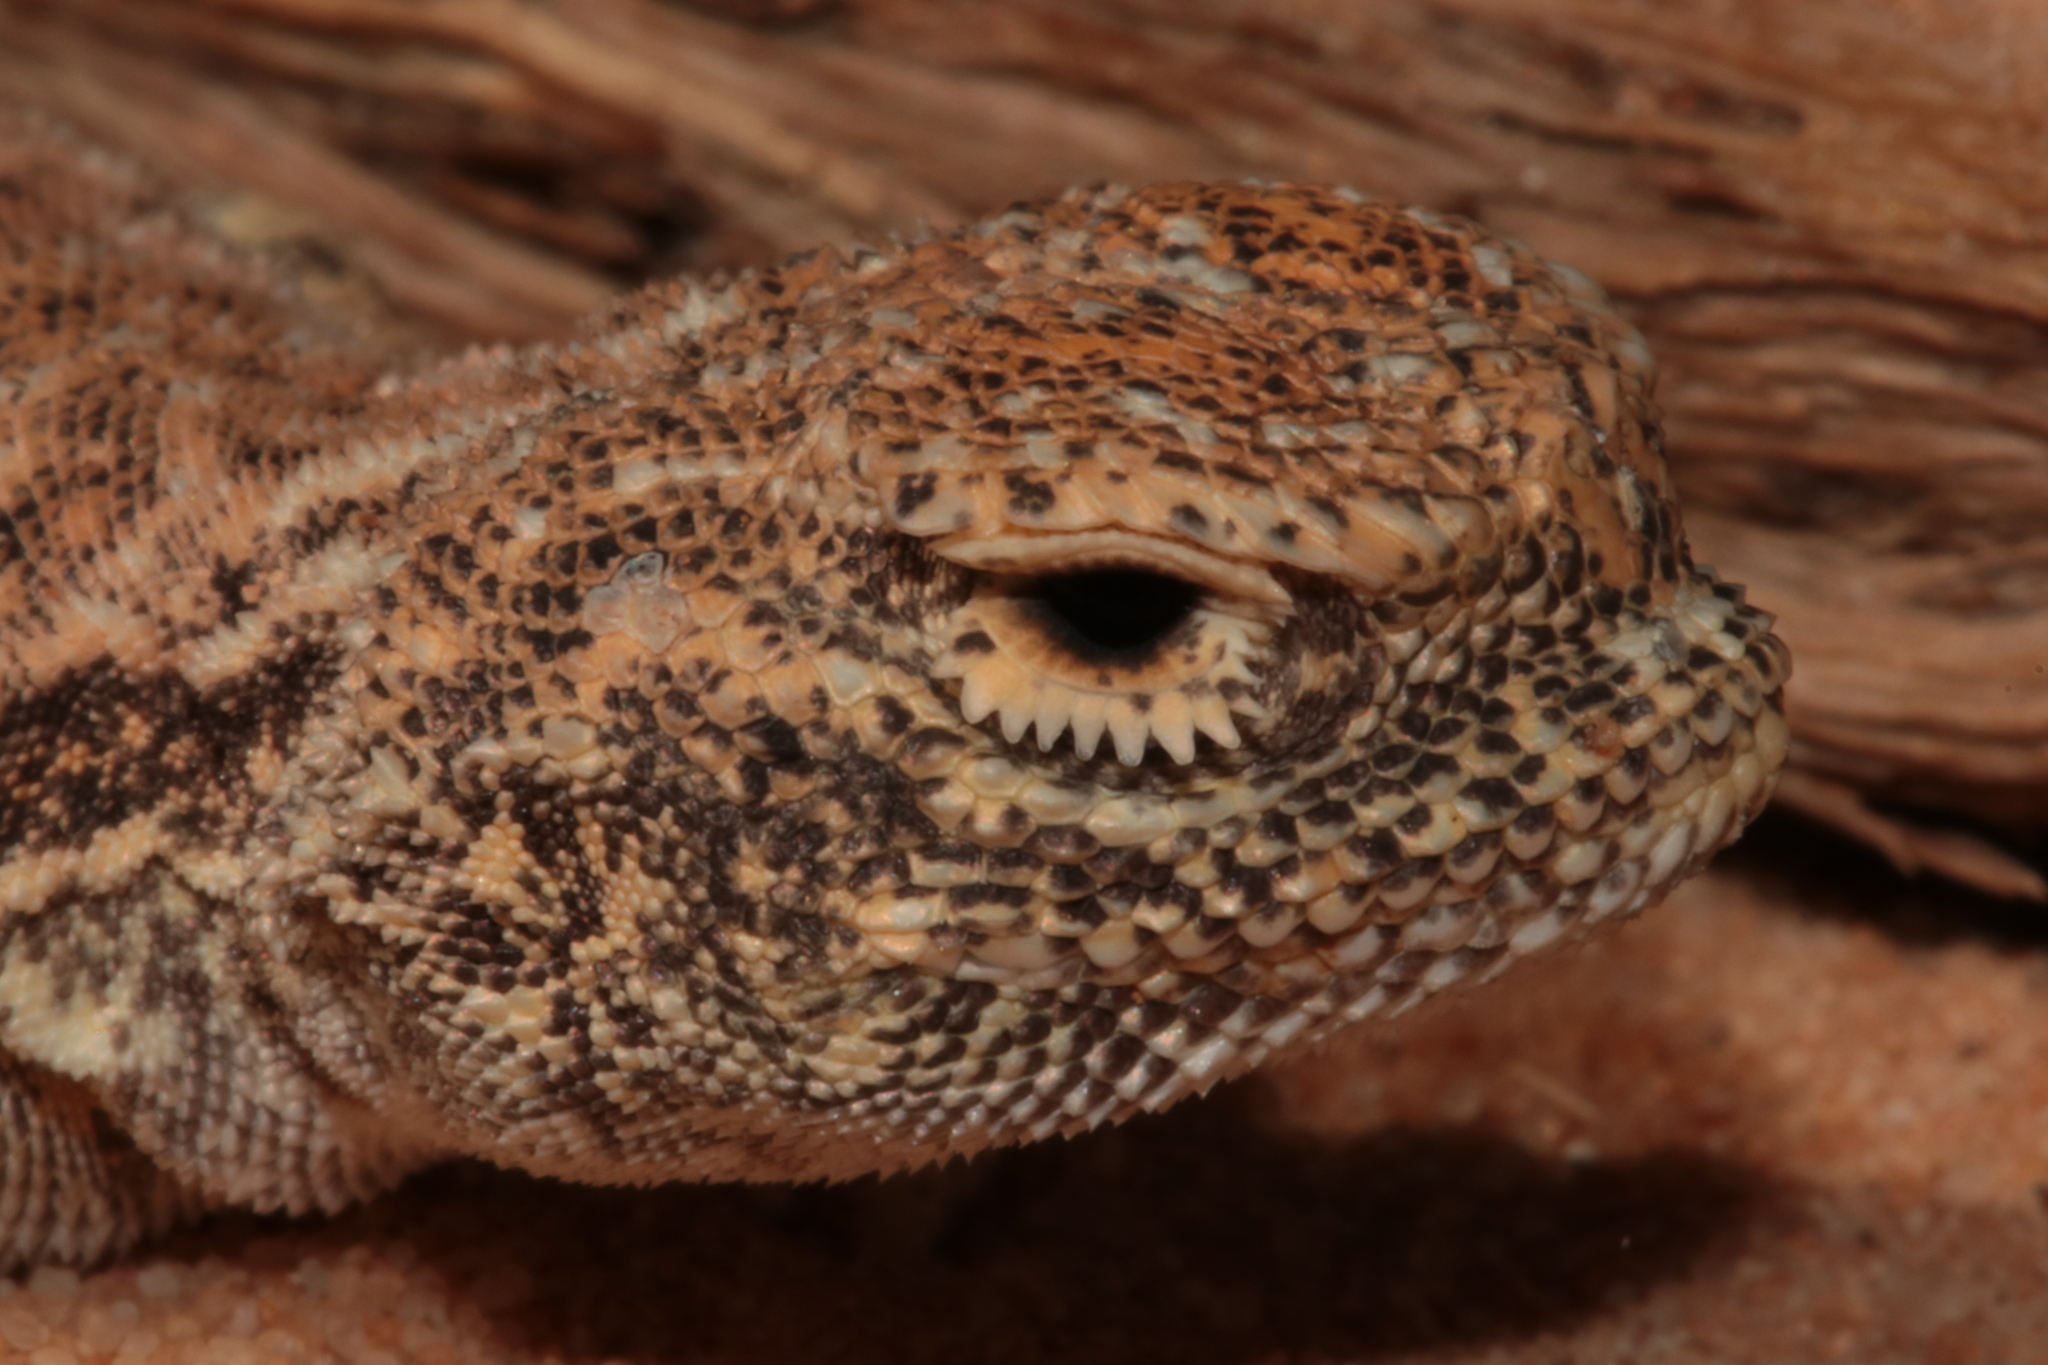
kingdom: Animalia
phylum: Chordata
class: Squamata
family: Agamidae
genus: Phrynocephalus
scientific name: Phrynocephalus arabicus
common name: Arabian toad-headed agama
